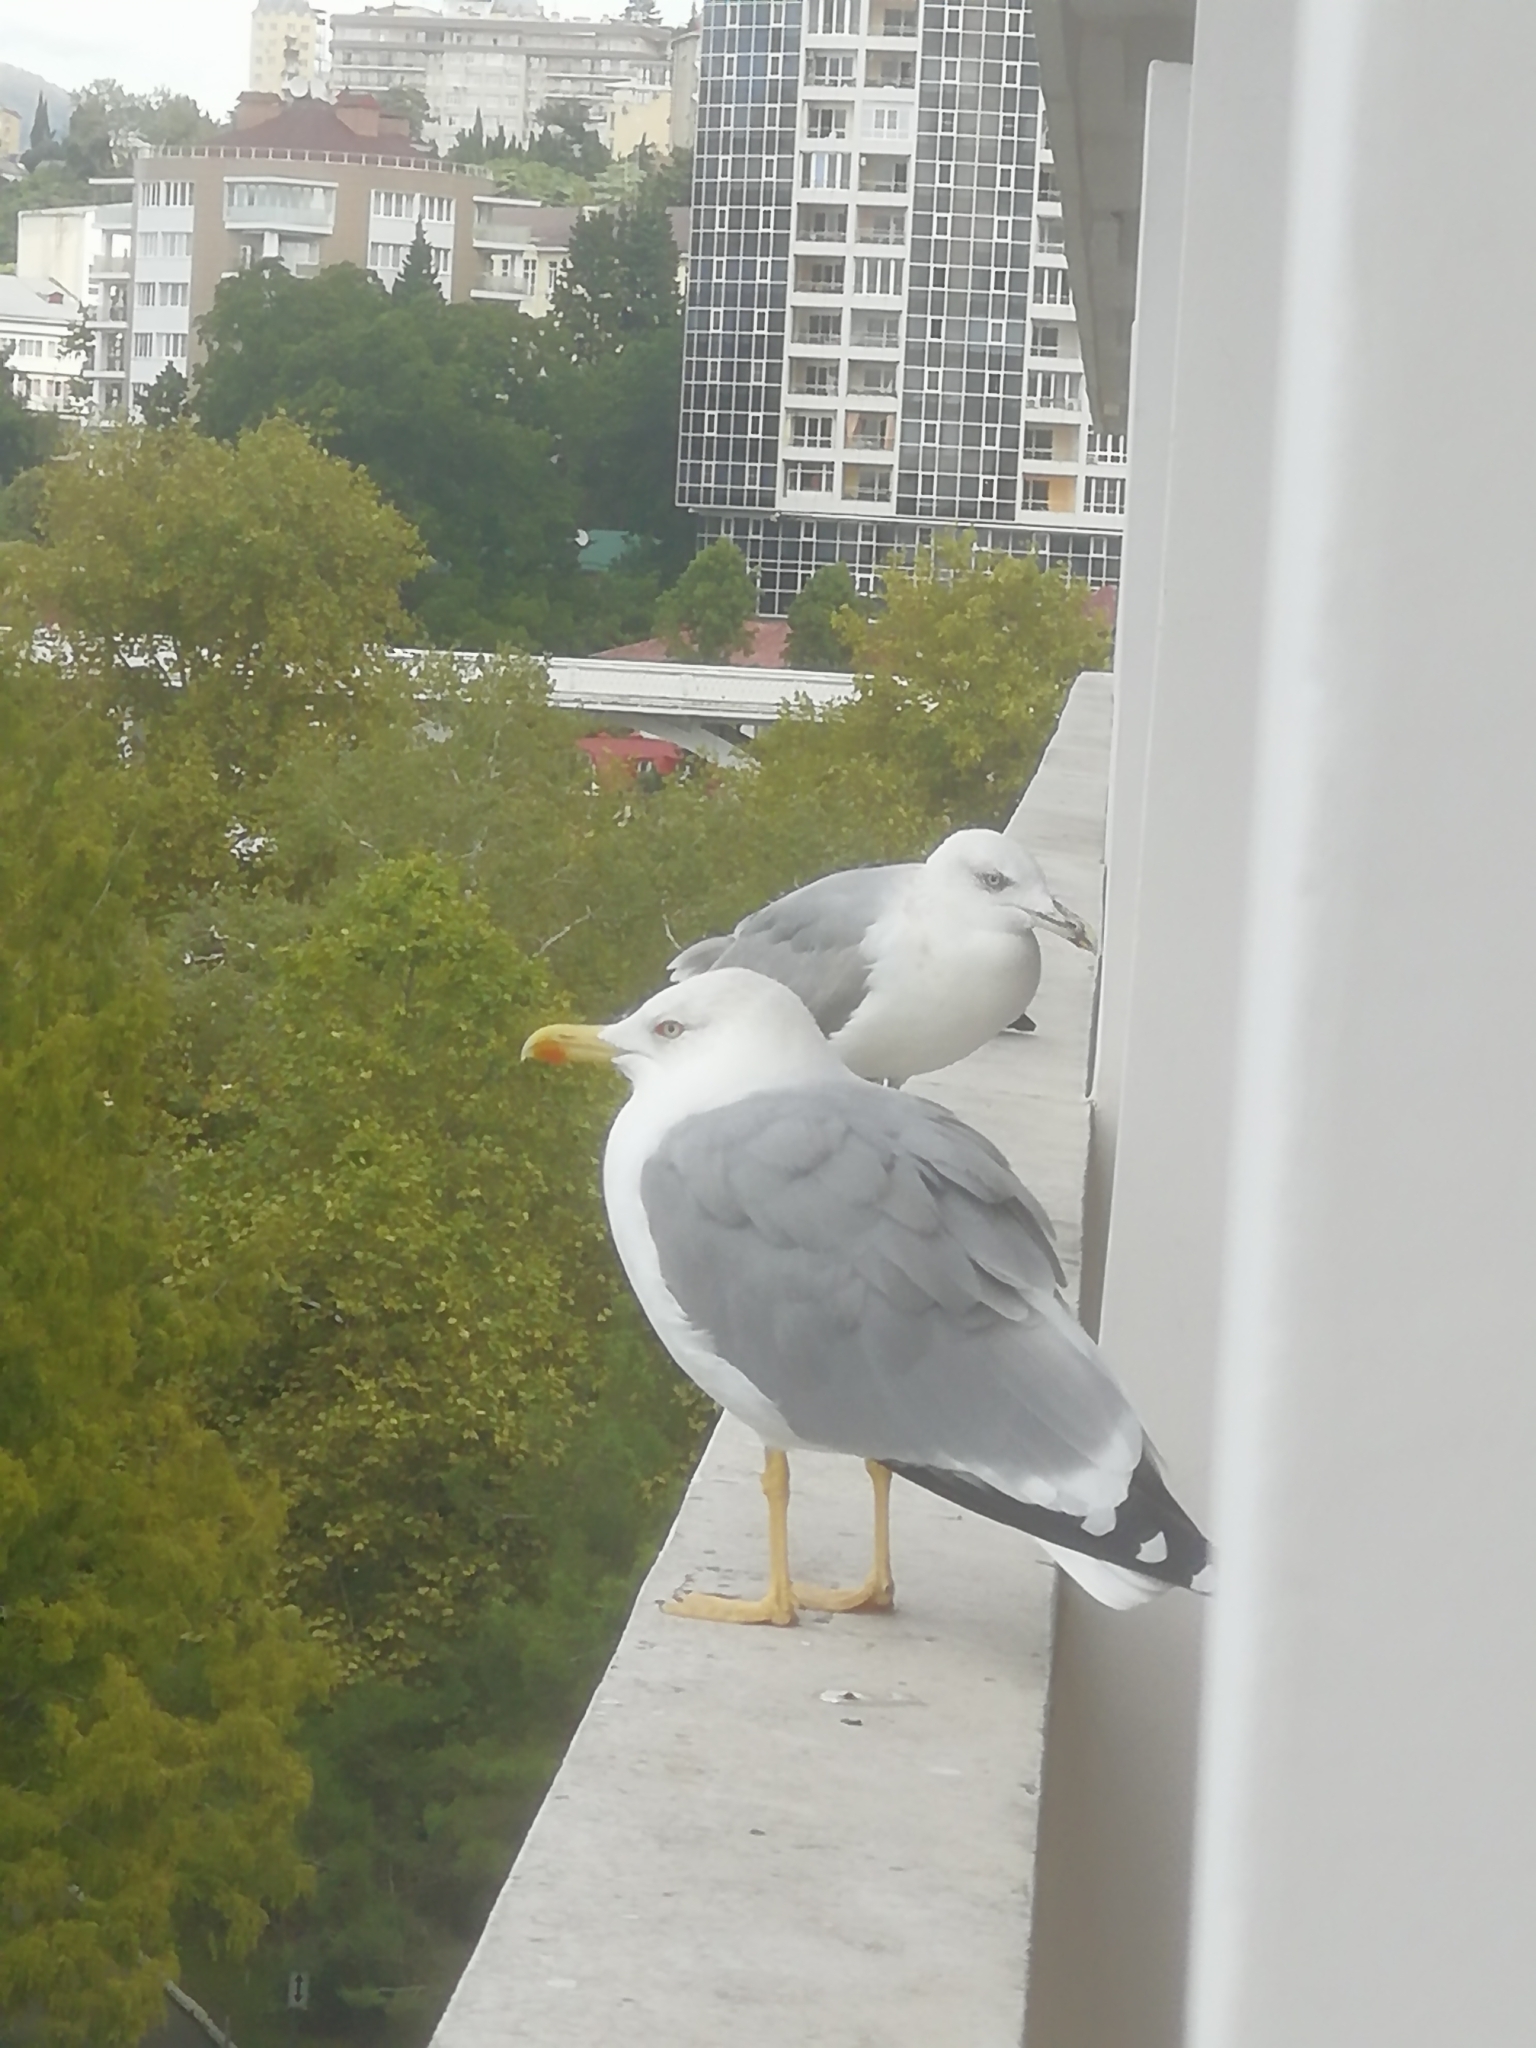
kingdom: Animalia
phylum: Chordata
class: Aves
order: Charadriiformes
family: Laridae
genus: Larus
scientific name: Larus michahellis
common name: Yellow-legged gull
